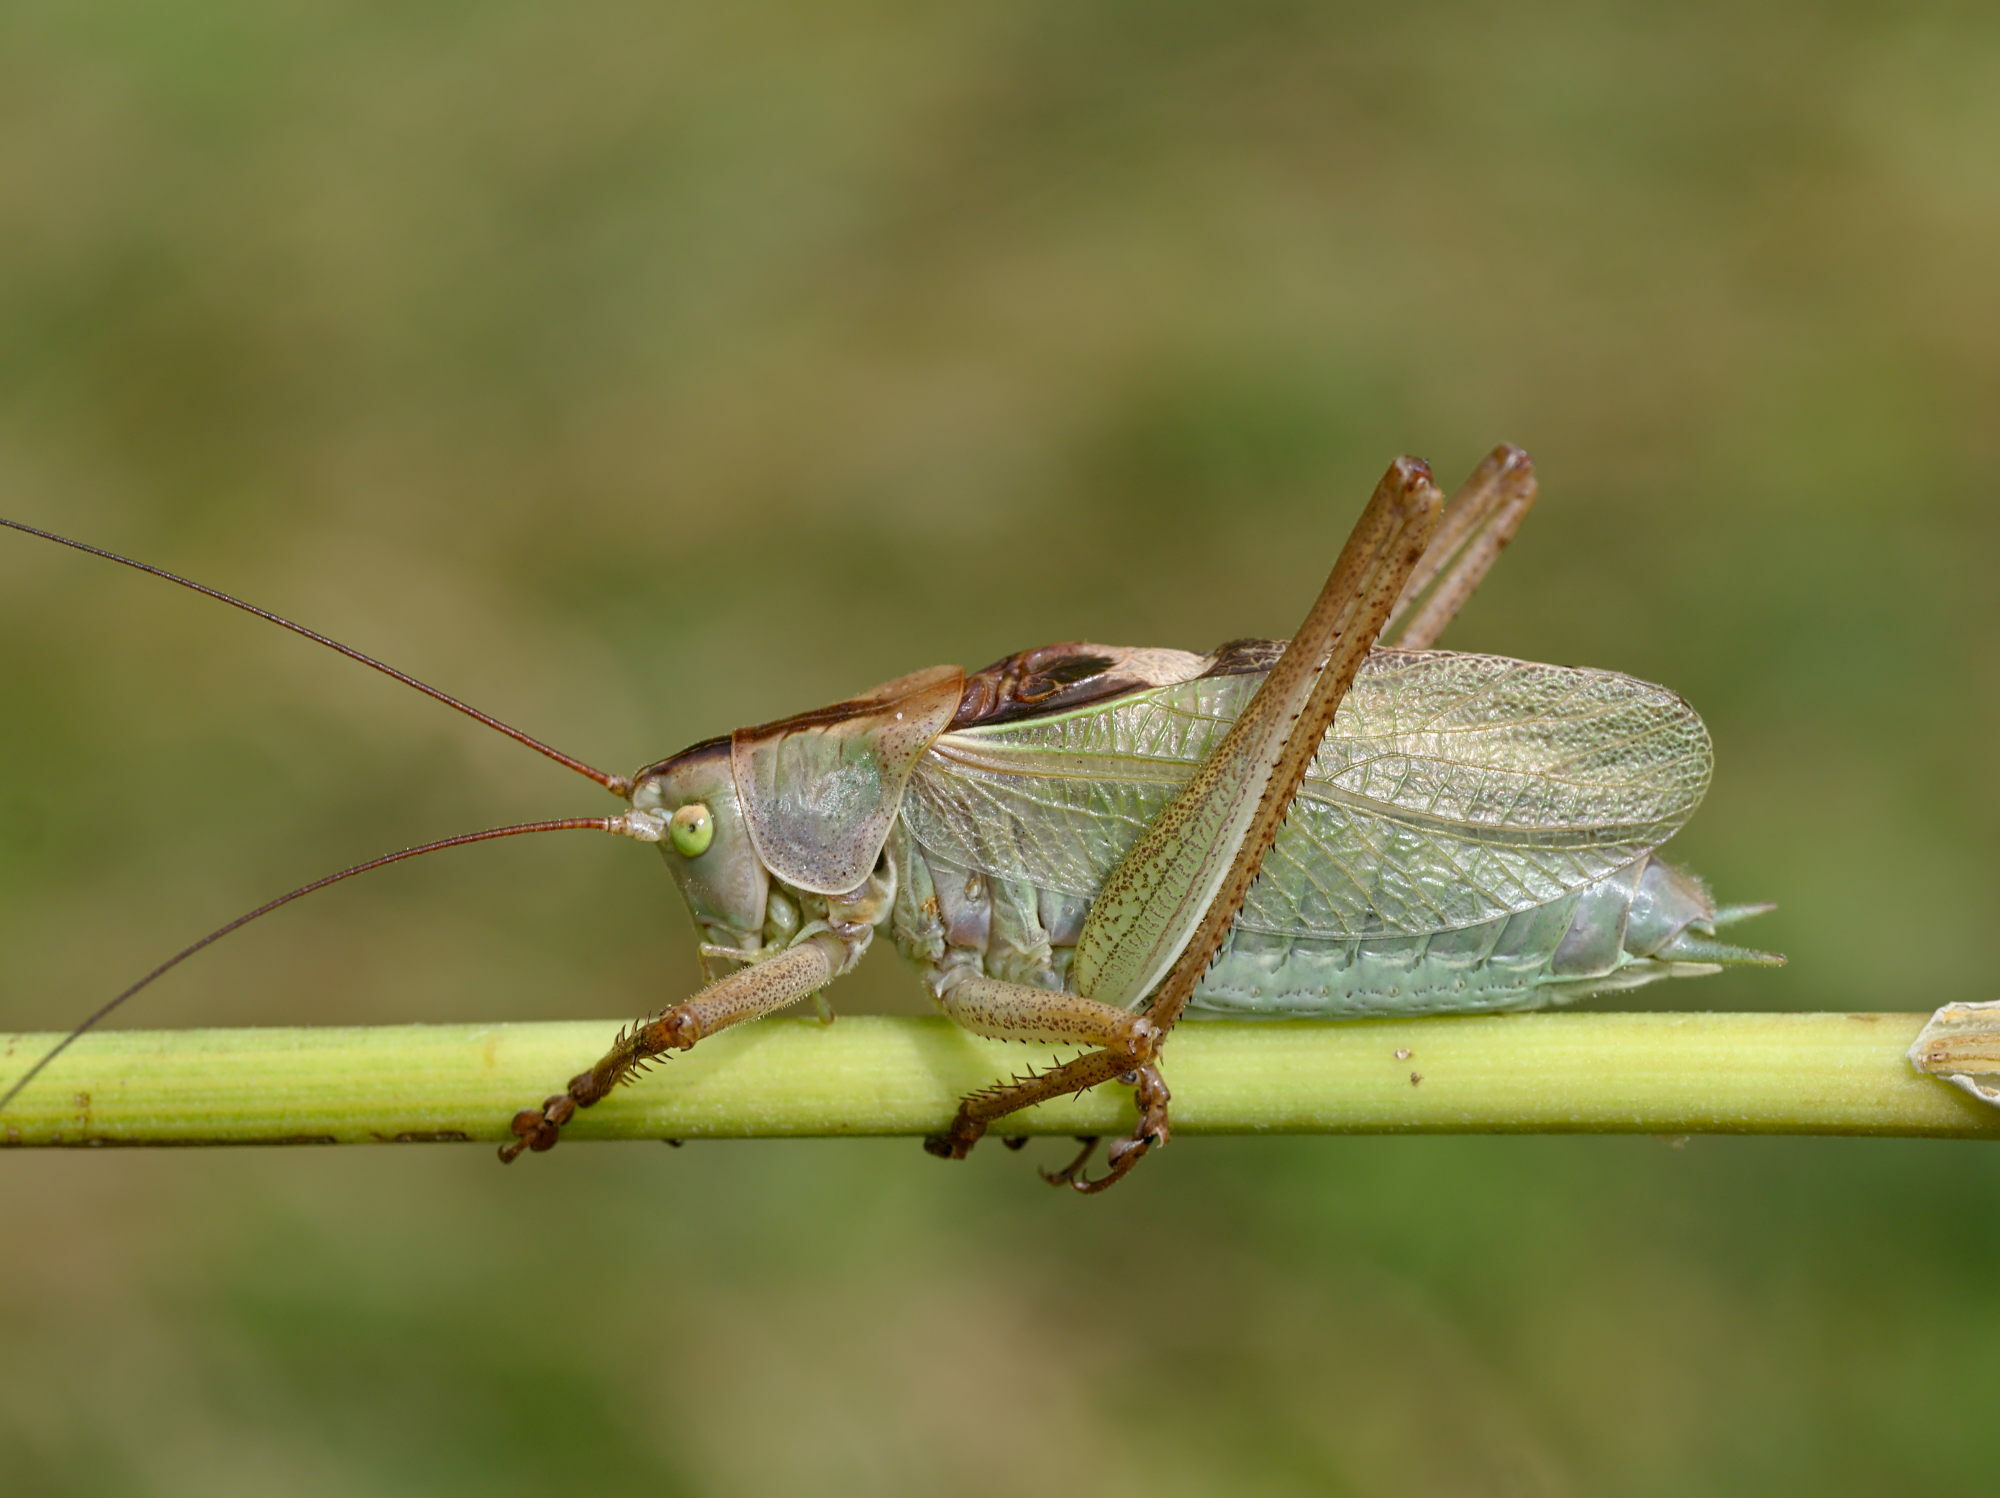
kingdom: Animalia
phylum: Arthropoda
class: Insecta
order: Orthoptera
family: Tettigoniidae
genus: Tettigonia
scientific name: Tettigonia cantans
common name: Upland green bush-cricket
